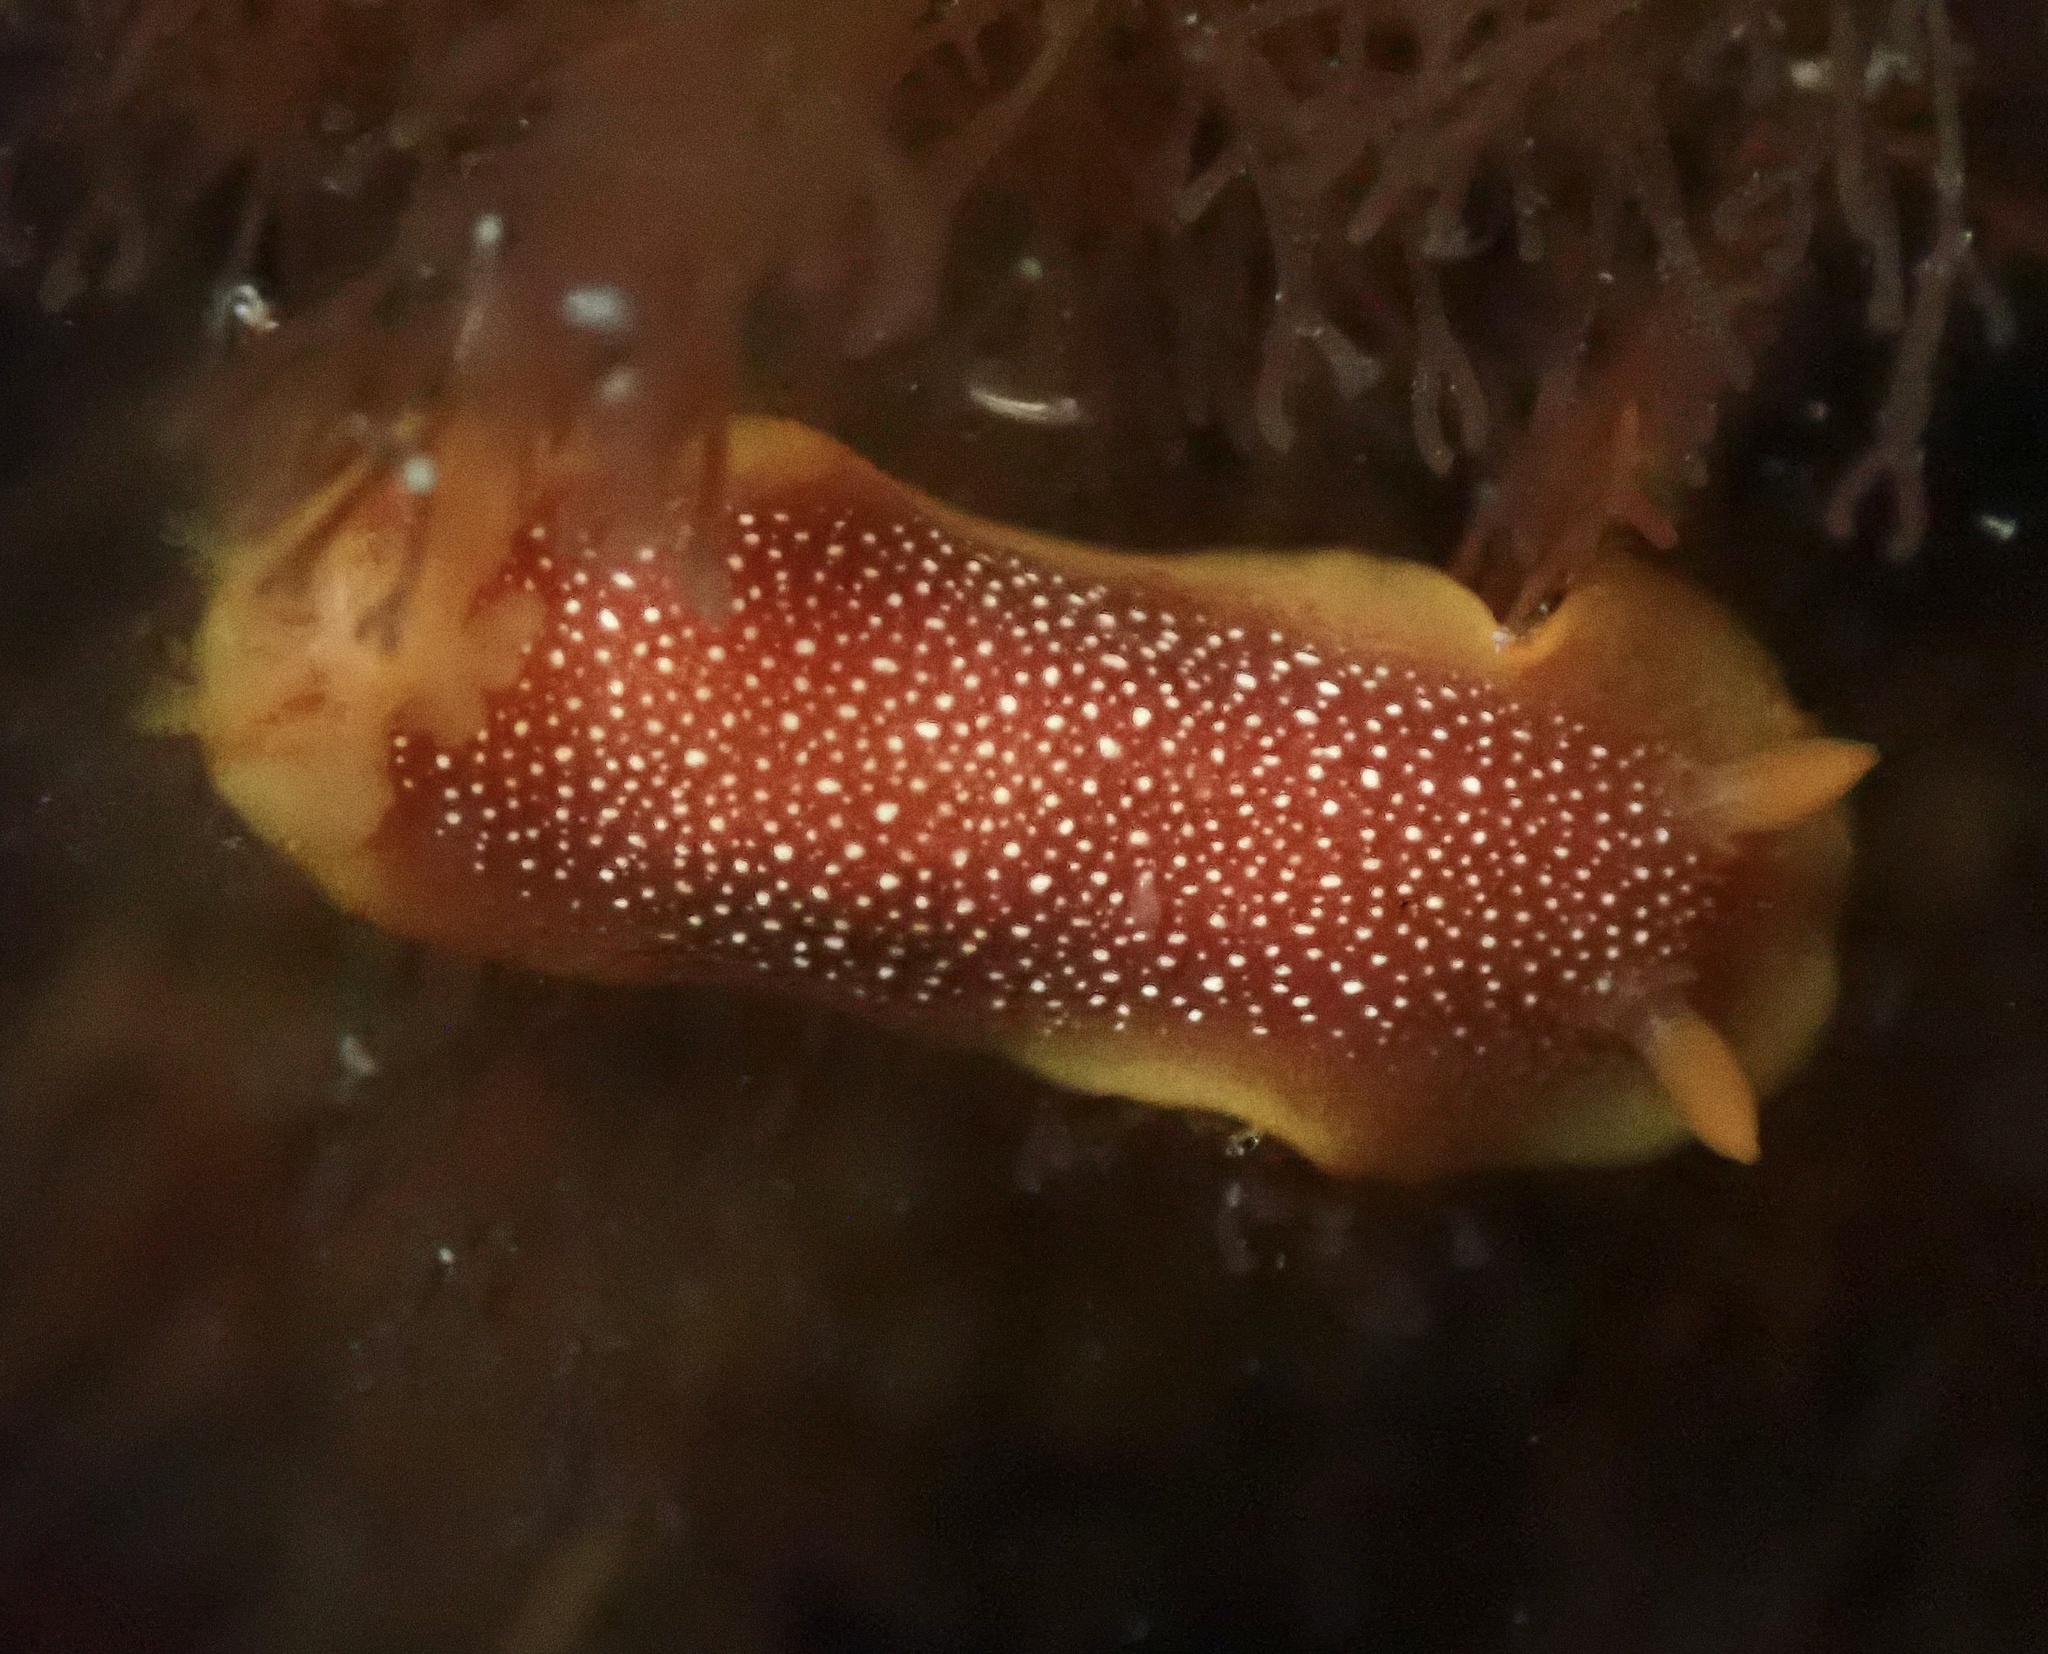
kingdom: Animalia
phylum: Mollusca
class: Gastropoda
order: Nudibranchia
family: Dendrodorididae
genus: Doriopsilla
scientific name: Doriopsilla gemela
